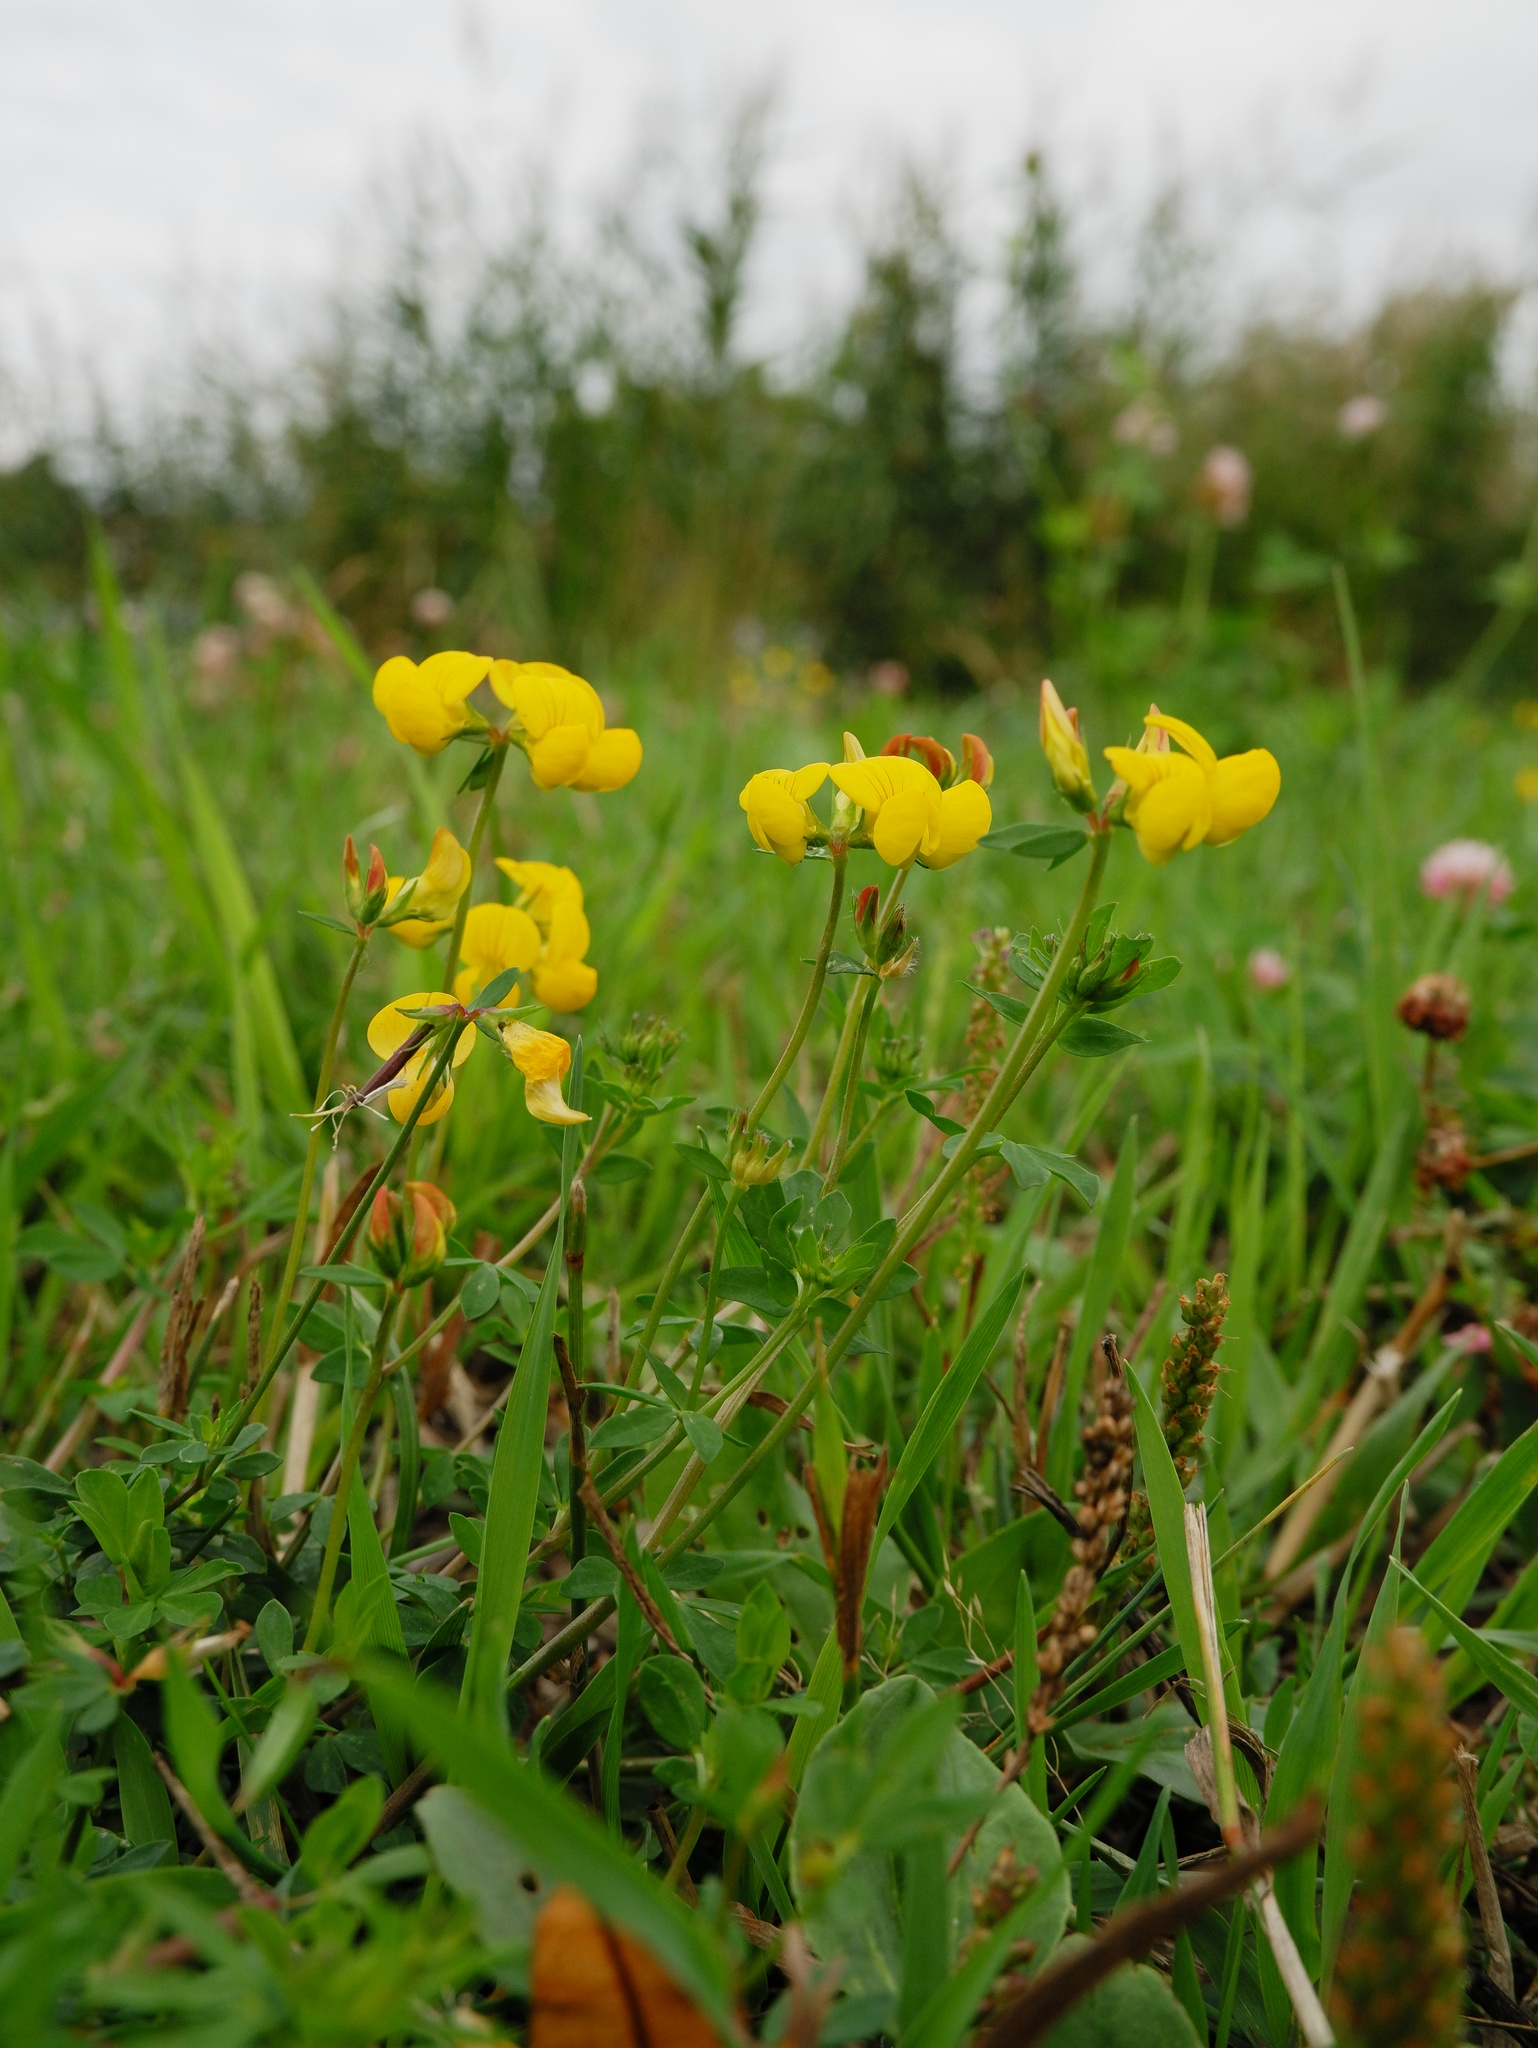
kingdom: Plantae
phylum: Tracheophyta
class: Magnoliopsida
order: Fabales
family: Fabaceae
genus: Lotus
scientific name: Lotus corniculatus
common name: Common bird's-foot-trefoil
